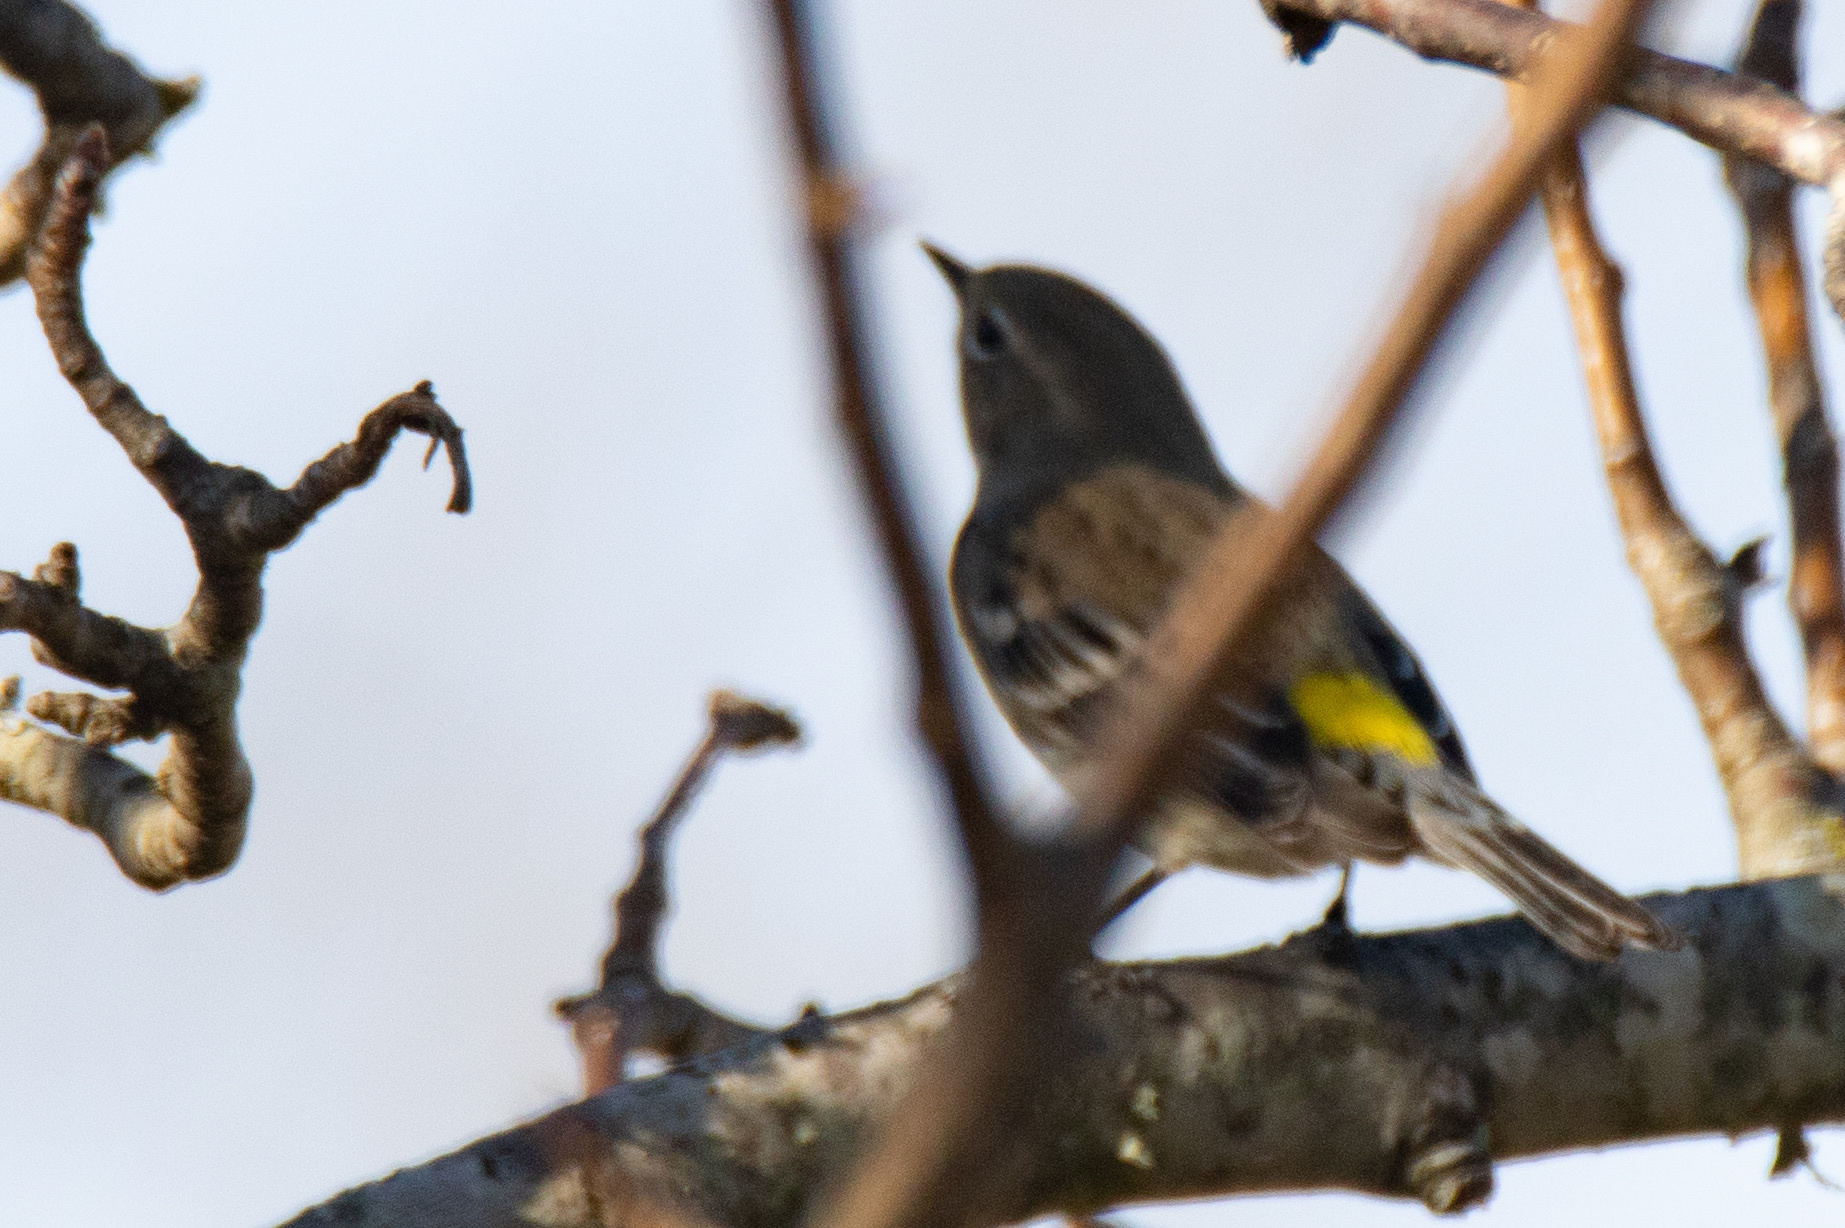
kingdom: Animalia
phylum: Chordata
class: Aves
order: Passeriformes
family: Parulidae
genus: Setophaga
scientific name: Setophaga coronata
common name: Myrtle warbler
